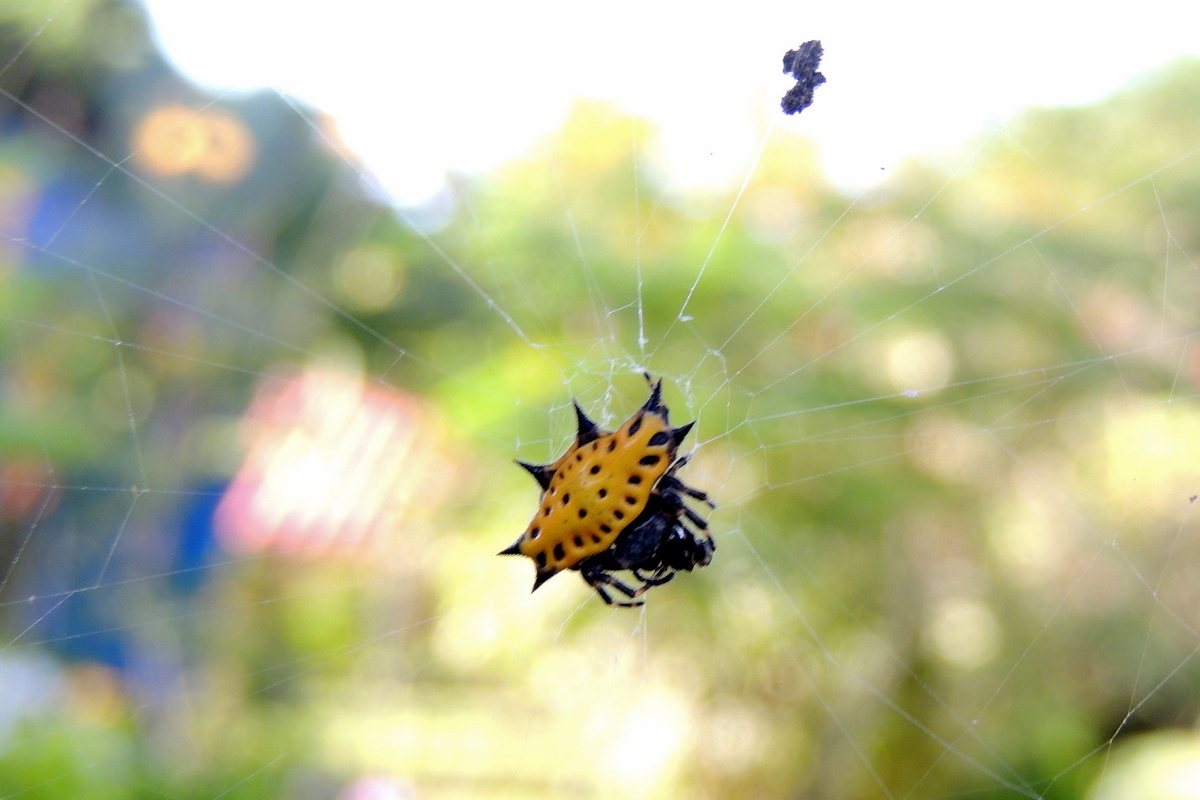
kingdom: Animalia
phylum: Arthropoda
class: Arachnida
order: Araneae
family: Araneidae
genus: Gasteracantha
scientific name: Gasteracantha cancriformis
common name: Orb weavers
